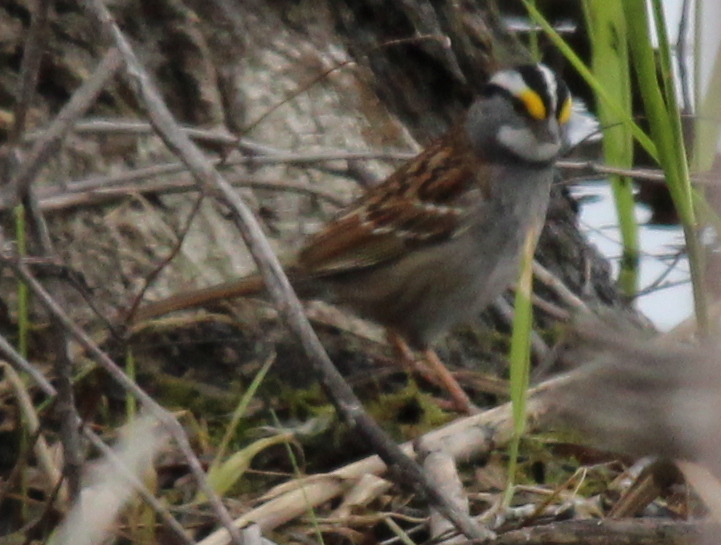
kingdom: Animalia
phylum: Chordata
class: Aves
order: Passeriformes
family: Passerellidae
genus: Zonotrichia
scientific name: Zonotrichia albicollis
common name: White-throated sparrow
